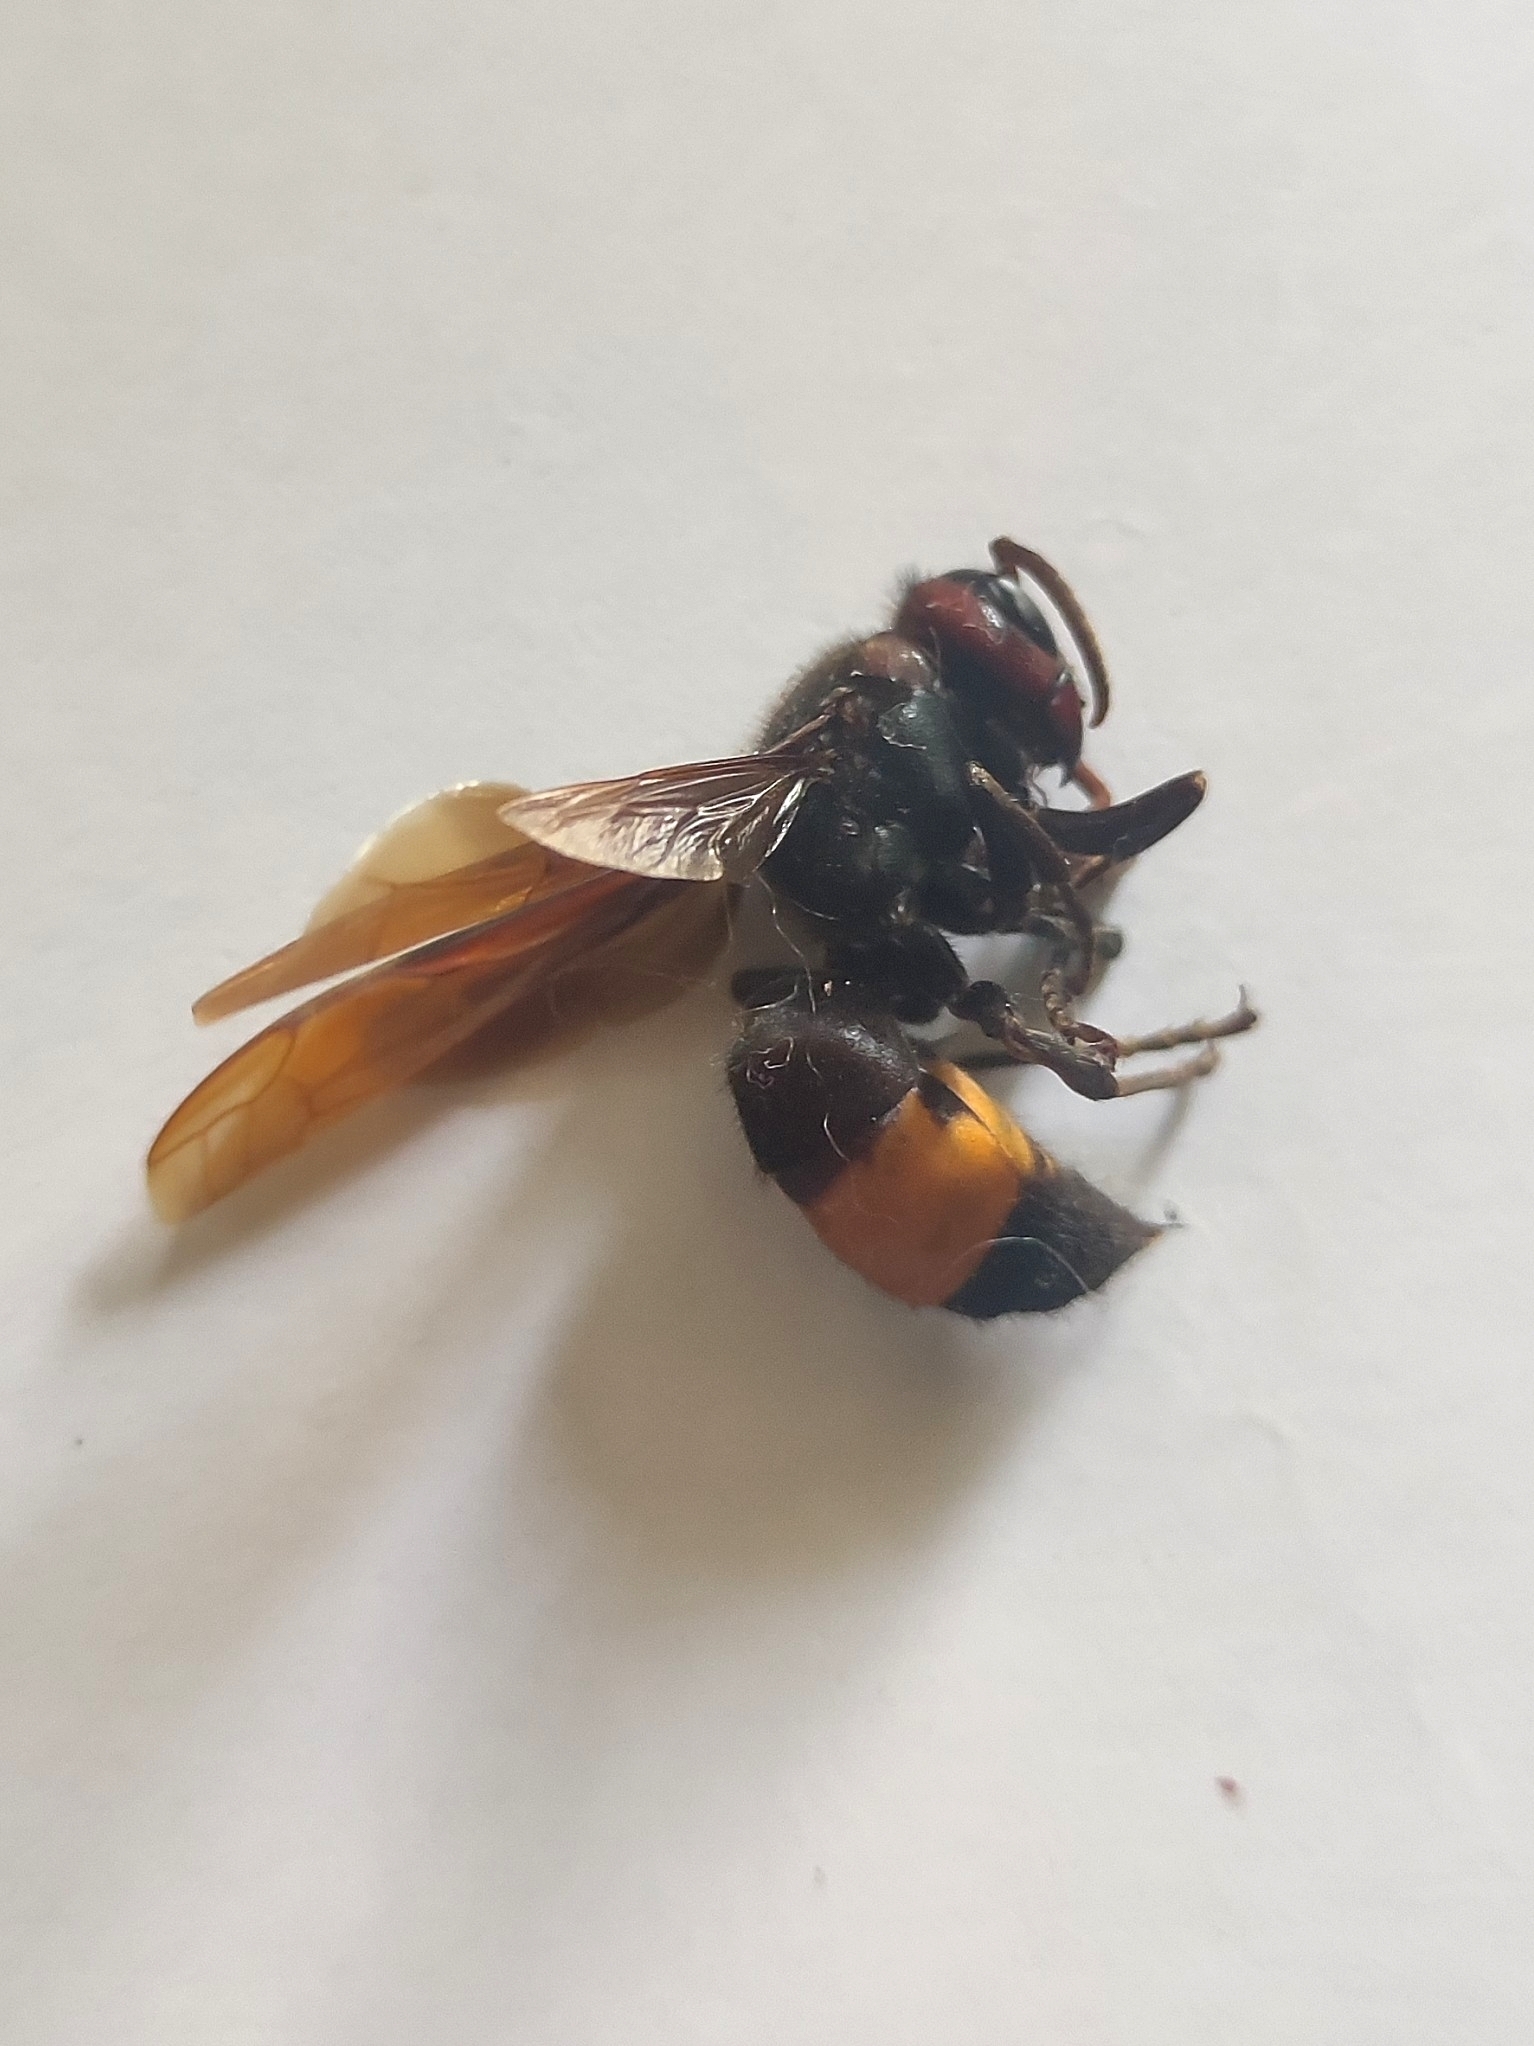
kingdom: Animalia
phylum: Arthropoda
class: Insecta
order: Hymenoptera
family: Vespidae
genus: Vespa
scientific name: Vespa tropica
